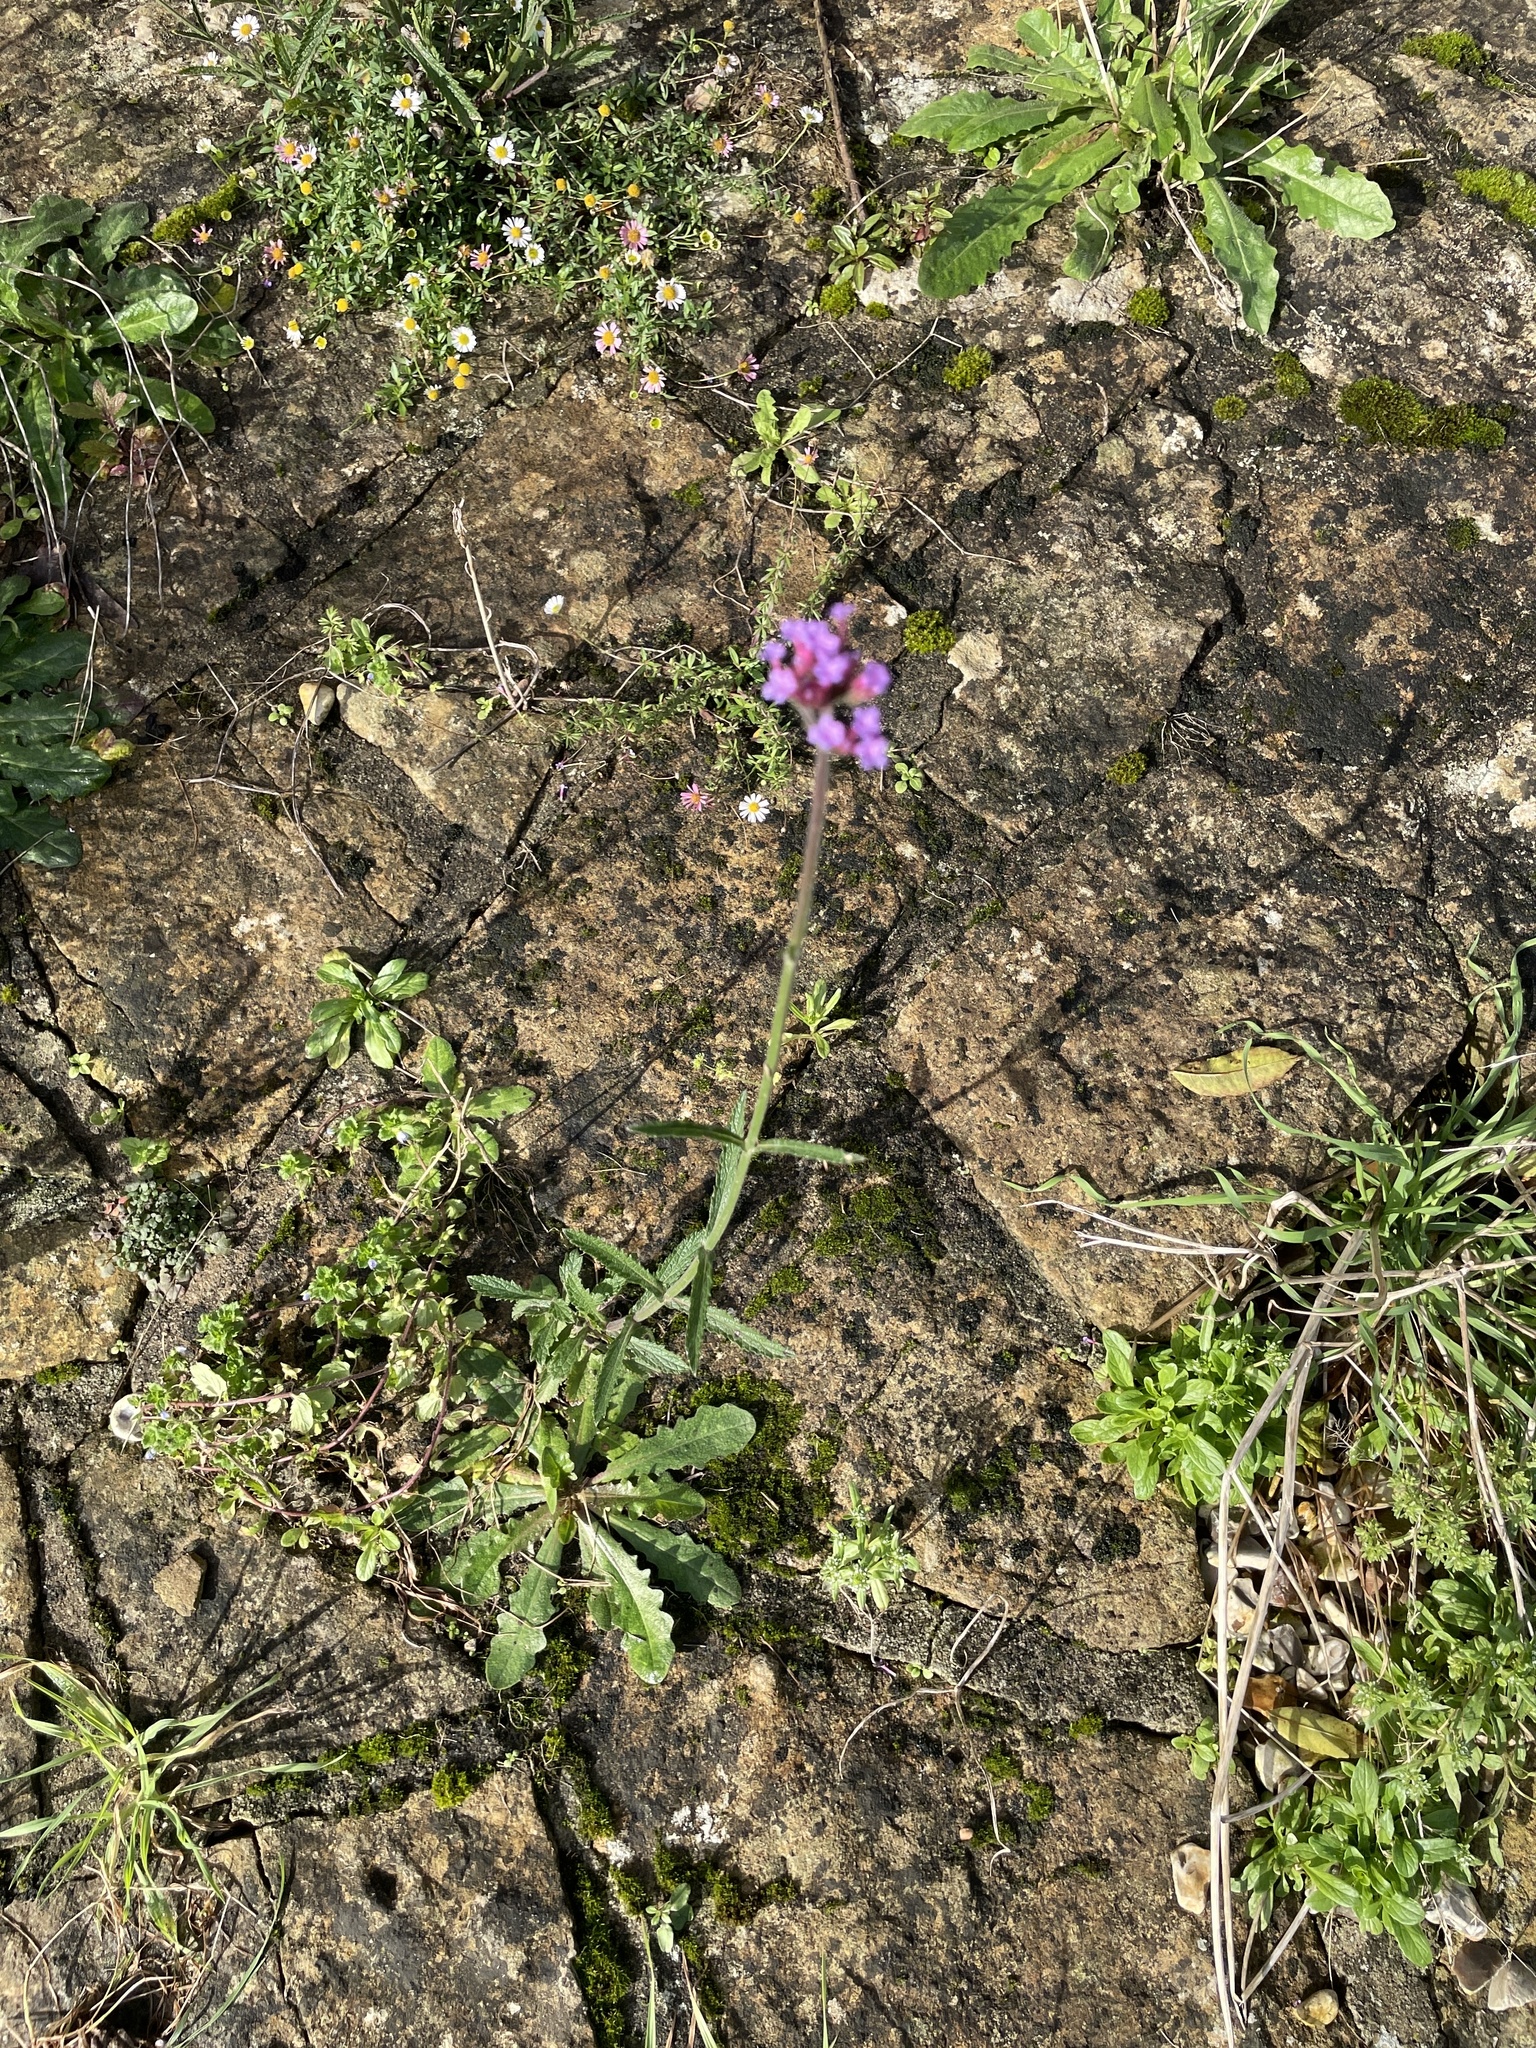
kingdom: Plantae
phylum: Tracheophyta
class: Magnoliopsida
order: Lamiales
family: Verbenaceae
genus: Verbena
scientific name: Verbena bonariensis
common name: Purpletop vervain
